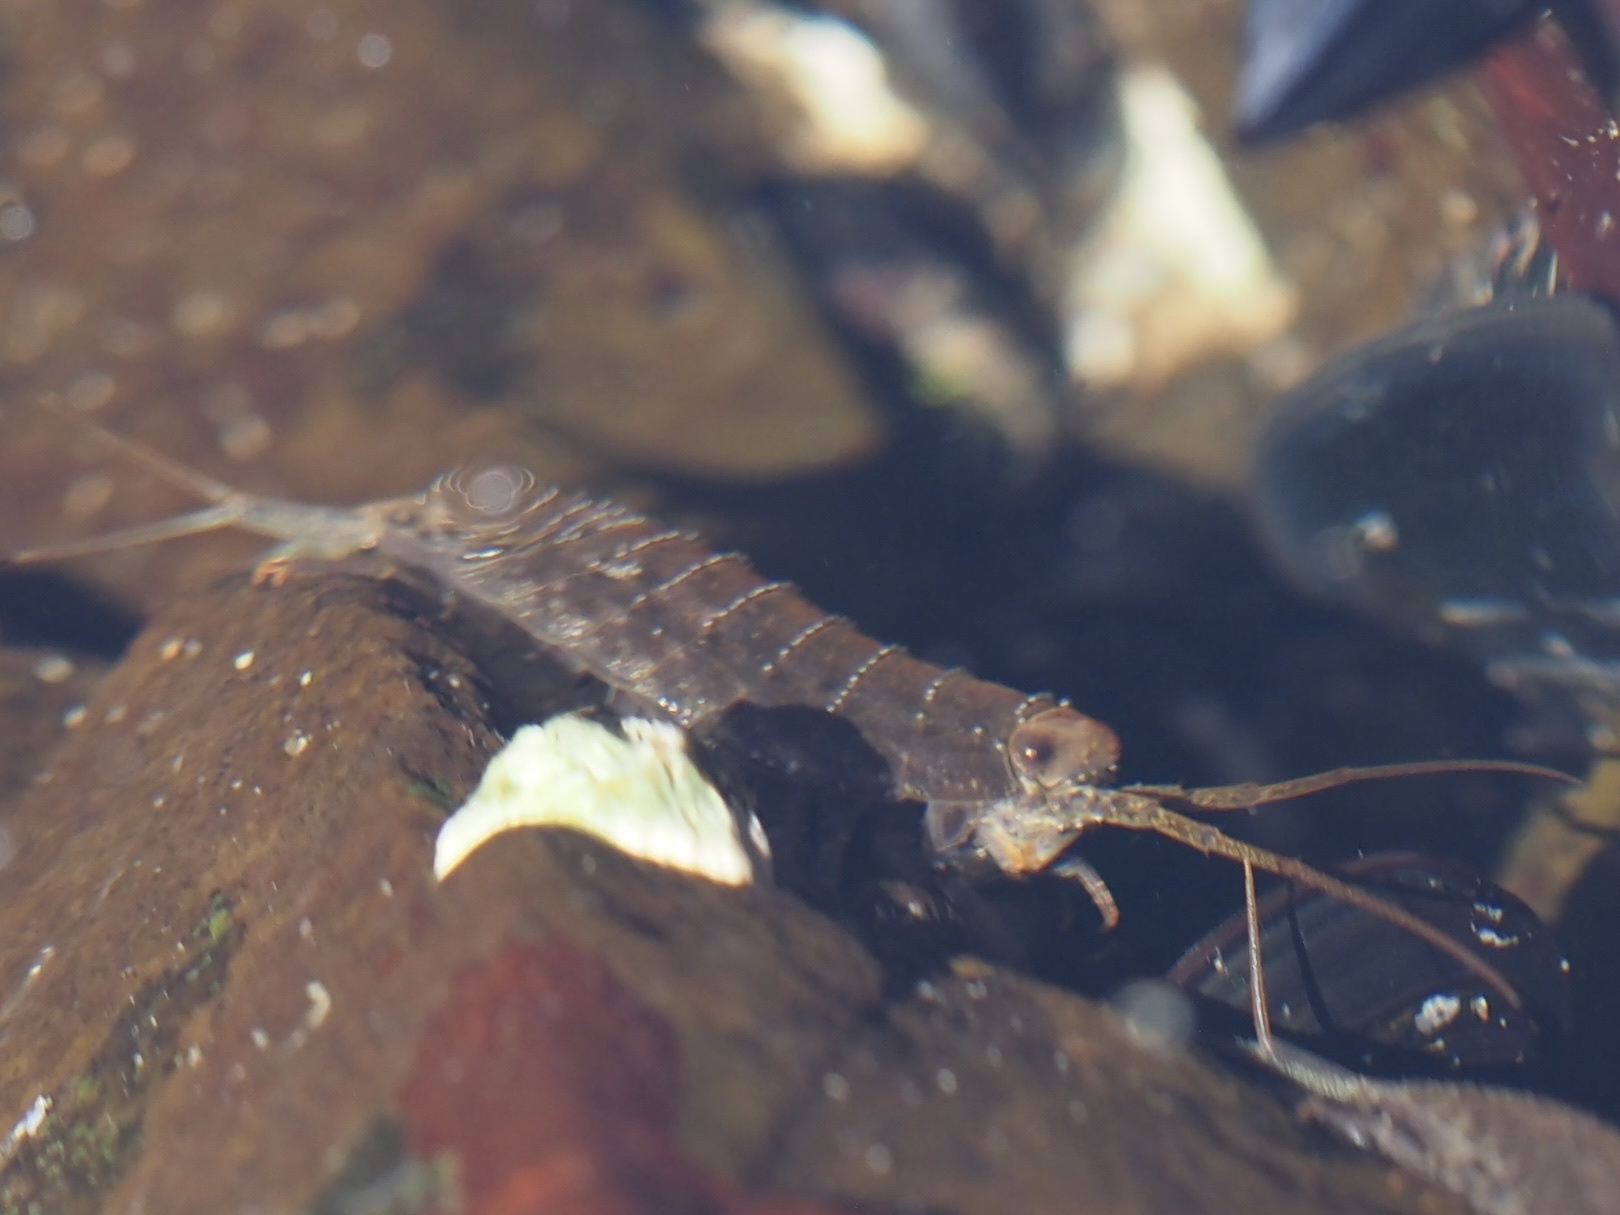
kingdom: Animalia
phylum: Arthropoda
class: Malacostraca
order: Isopoda
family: Ligiidae
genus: Ligia
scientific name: Ligia occidentalis
